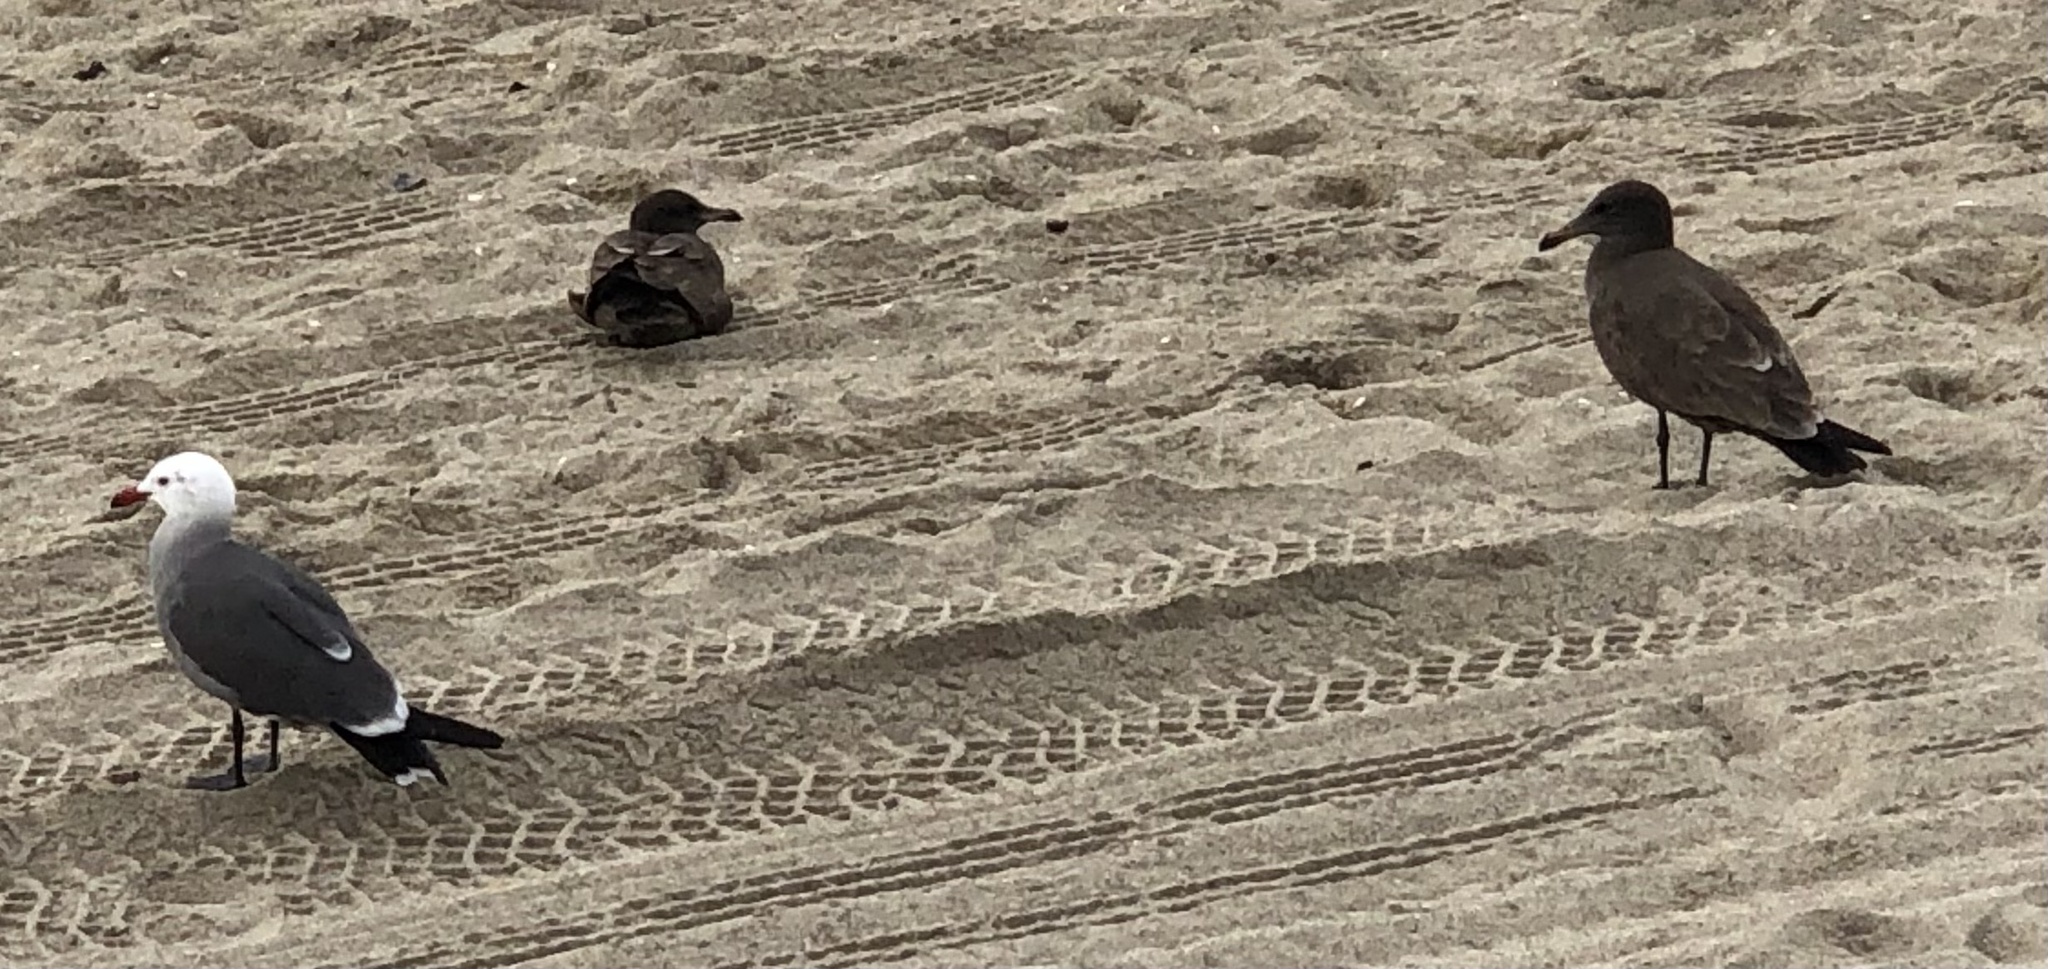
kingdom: Animalia
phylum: Chordata
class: Aves
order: Charadriiformes
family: Laridae
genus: Larus
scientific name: Larus heermanni
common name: Heermann's gull
